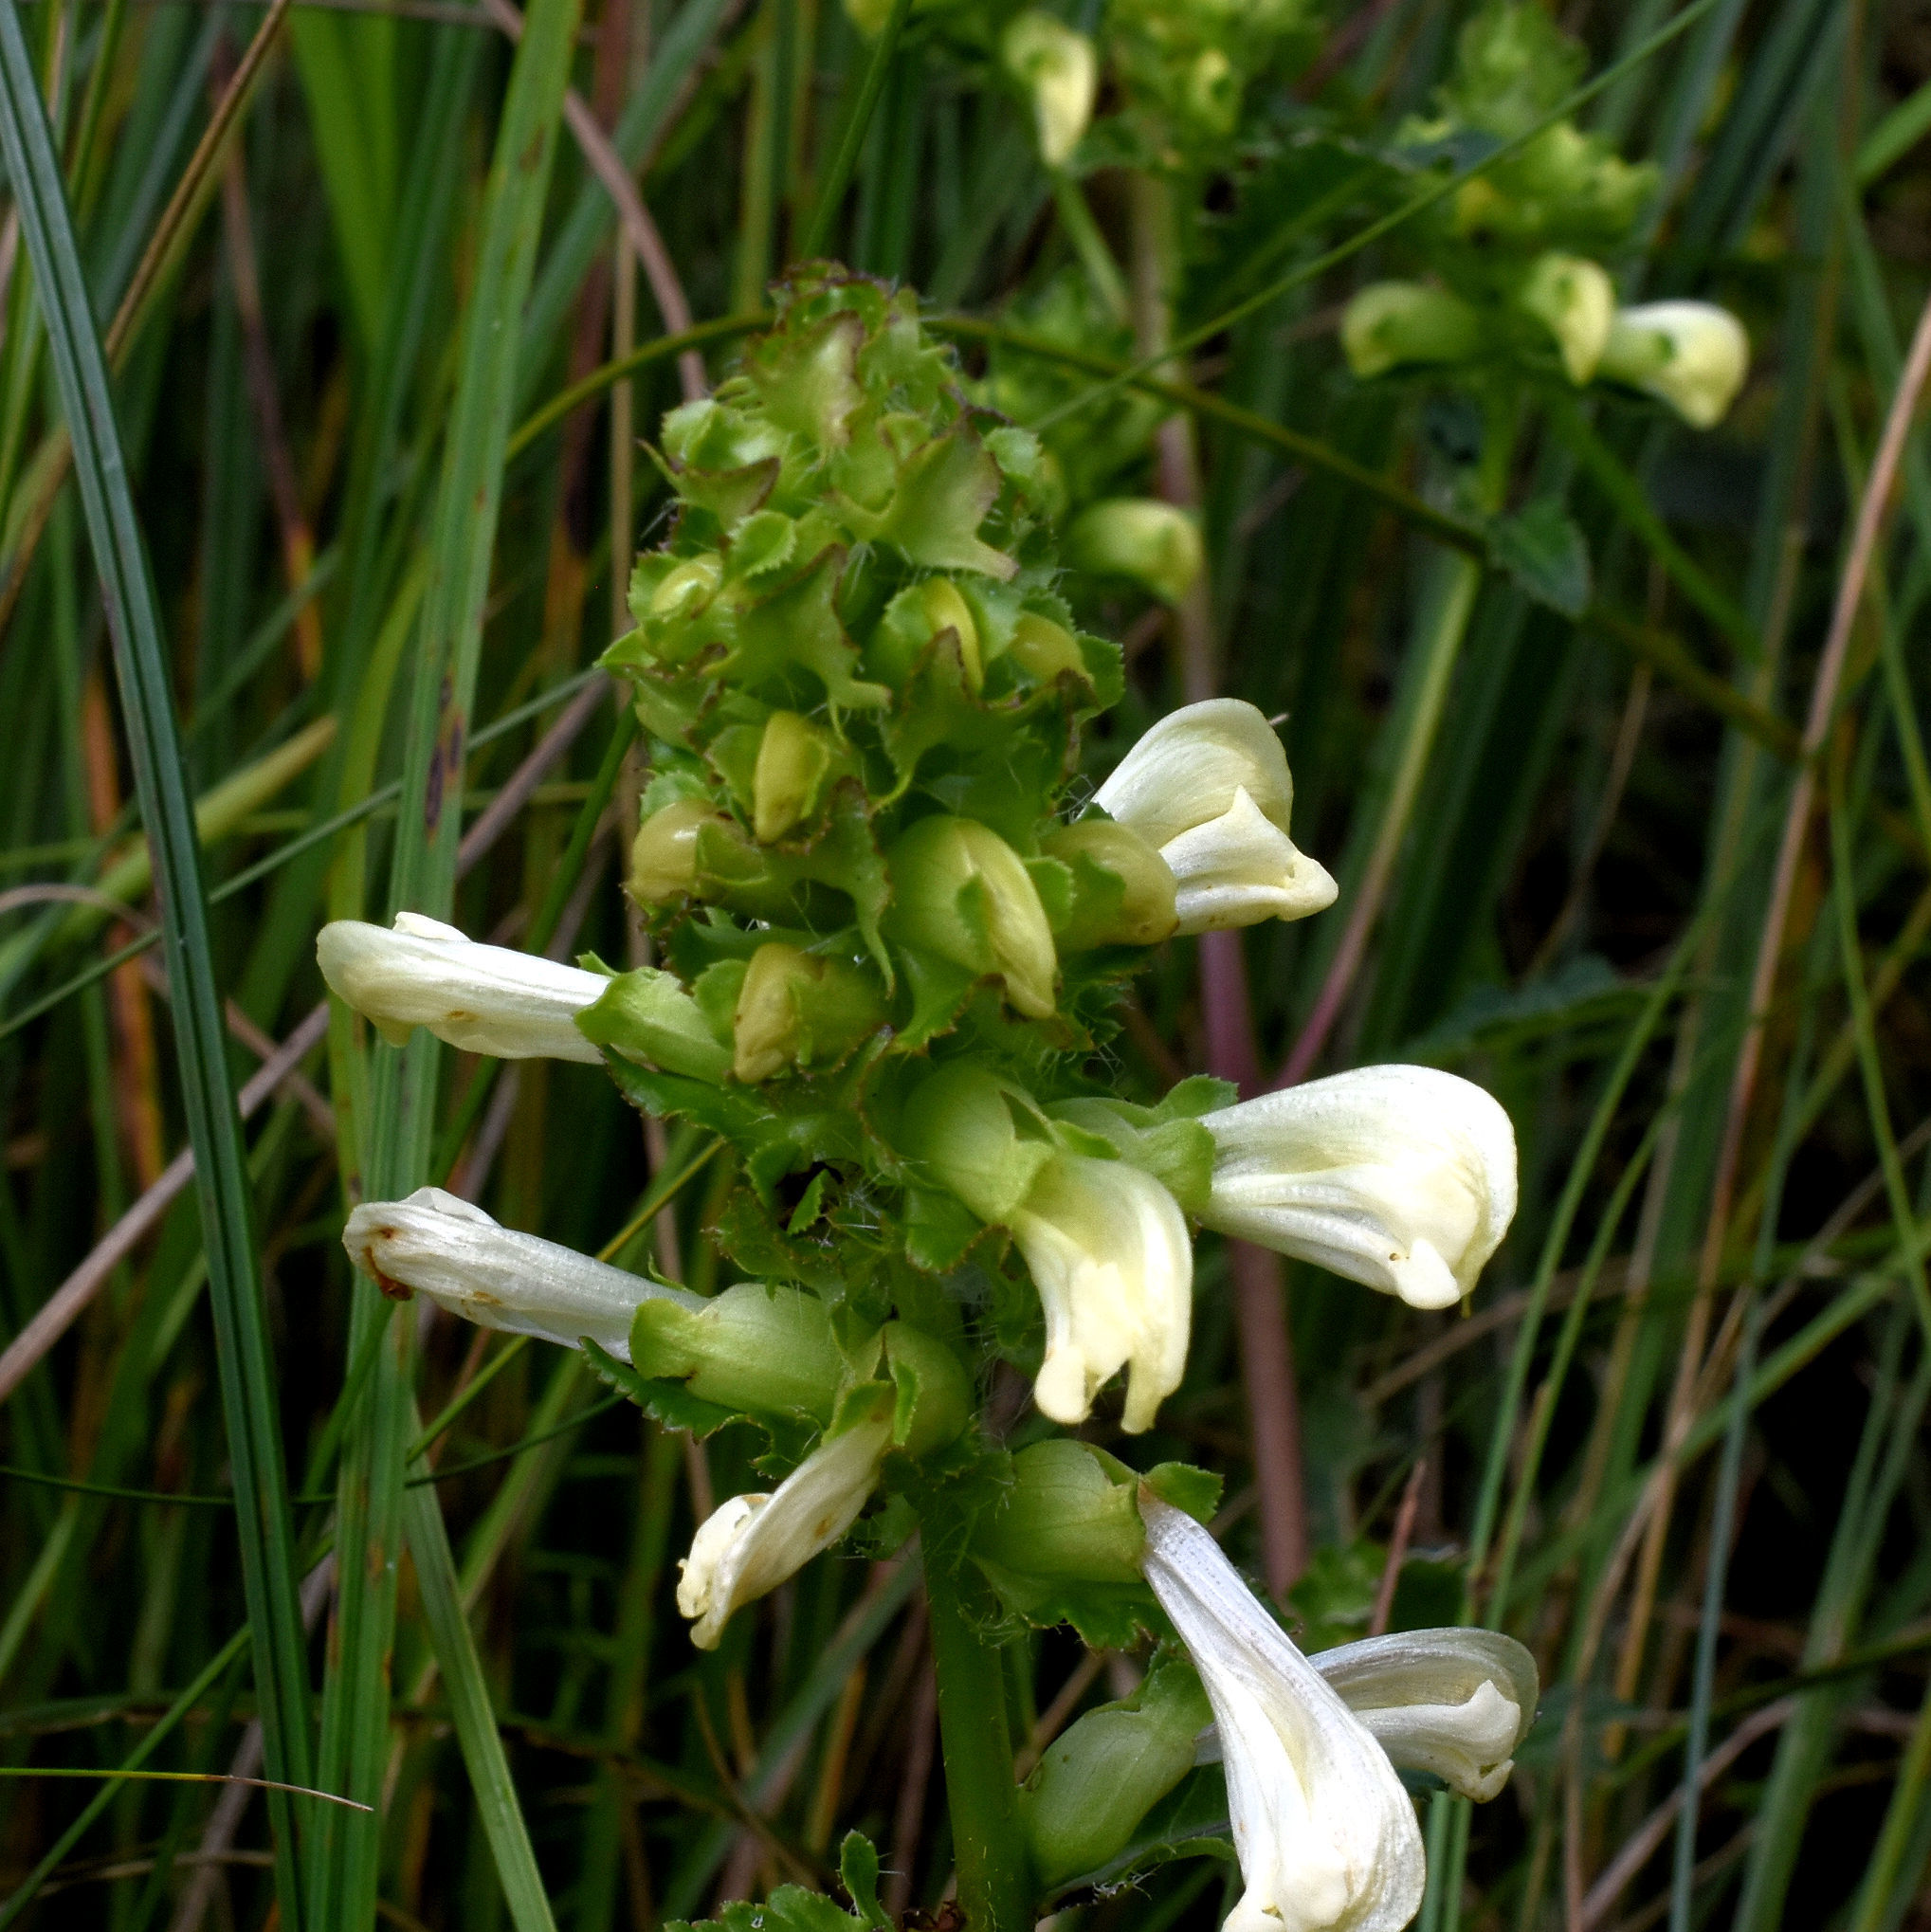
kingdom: Plantae
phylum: Tracheophyta
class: Magnoliopsida
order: Lamiales
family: Orobanchaceae
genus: Pedicularis
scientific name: Pedicularis lanceolata
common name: Swamp lousewort
